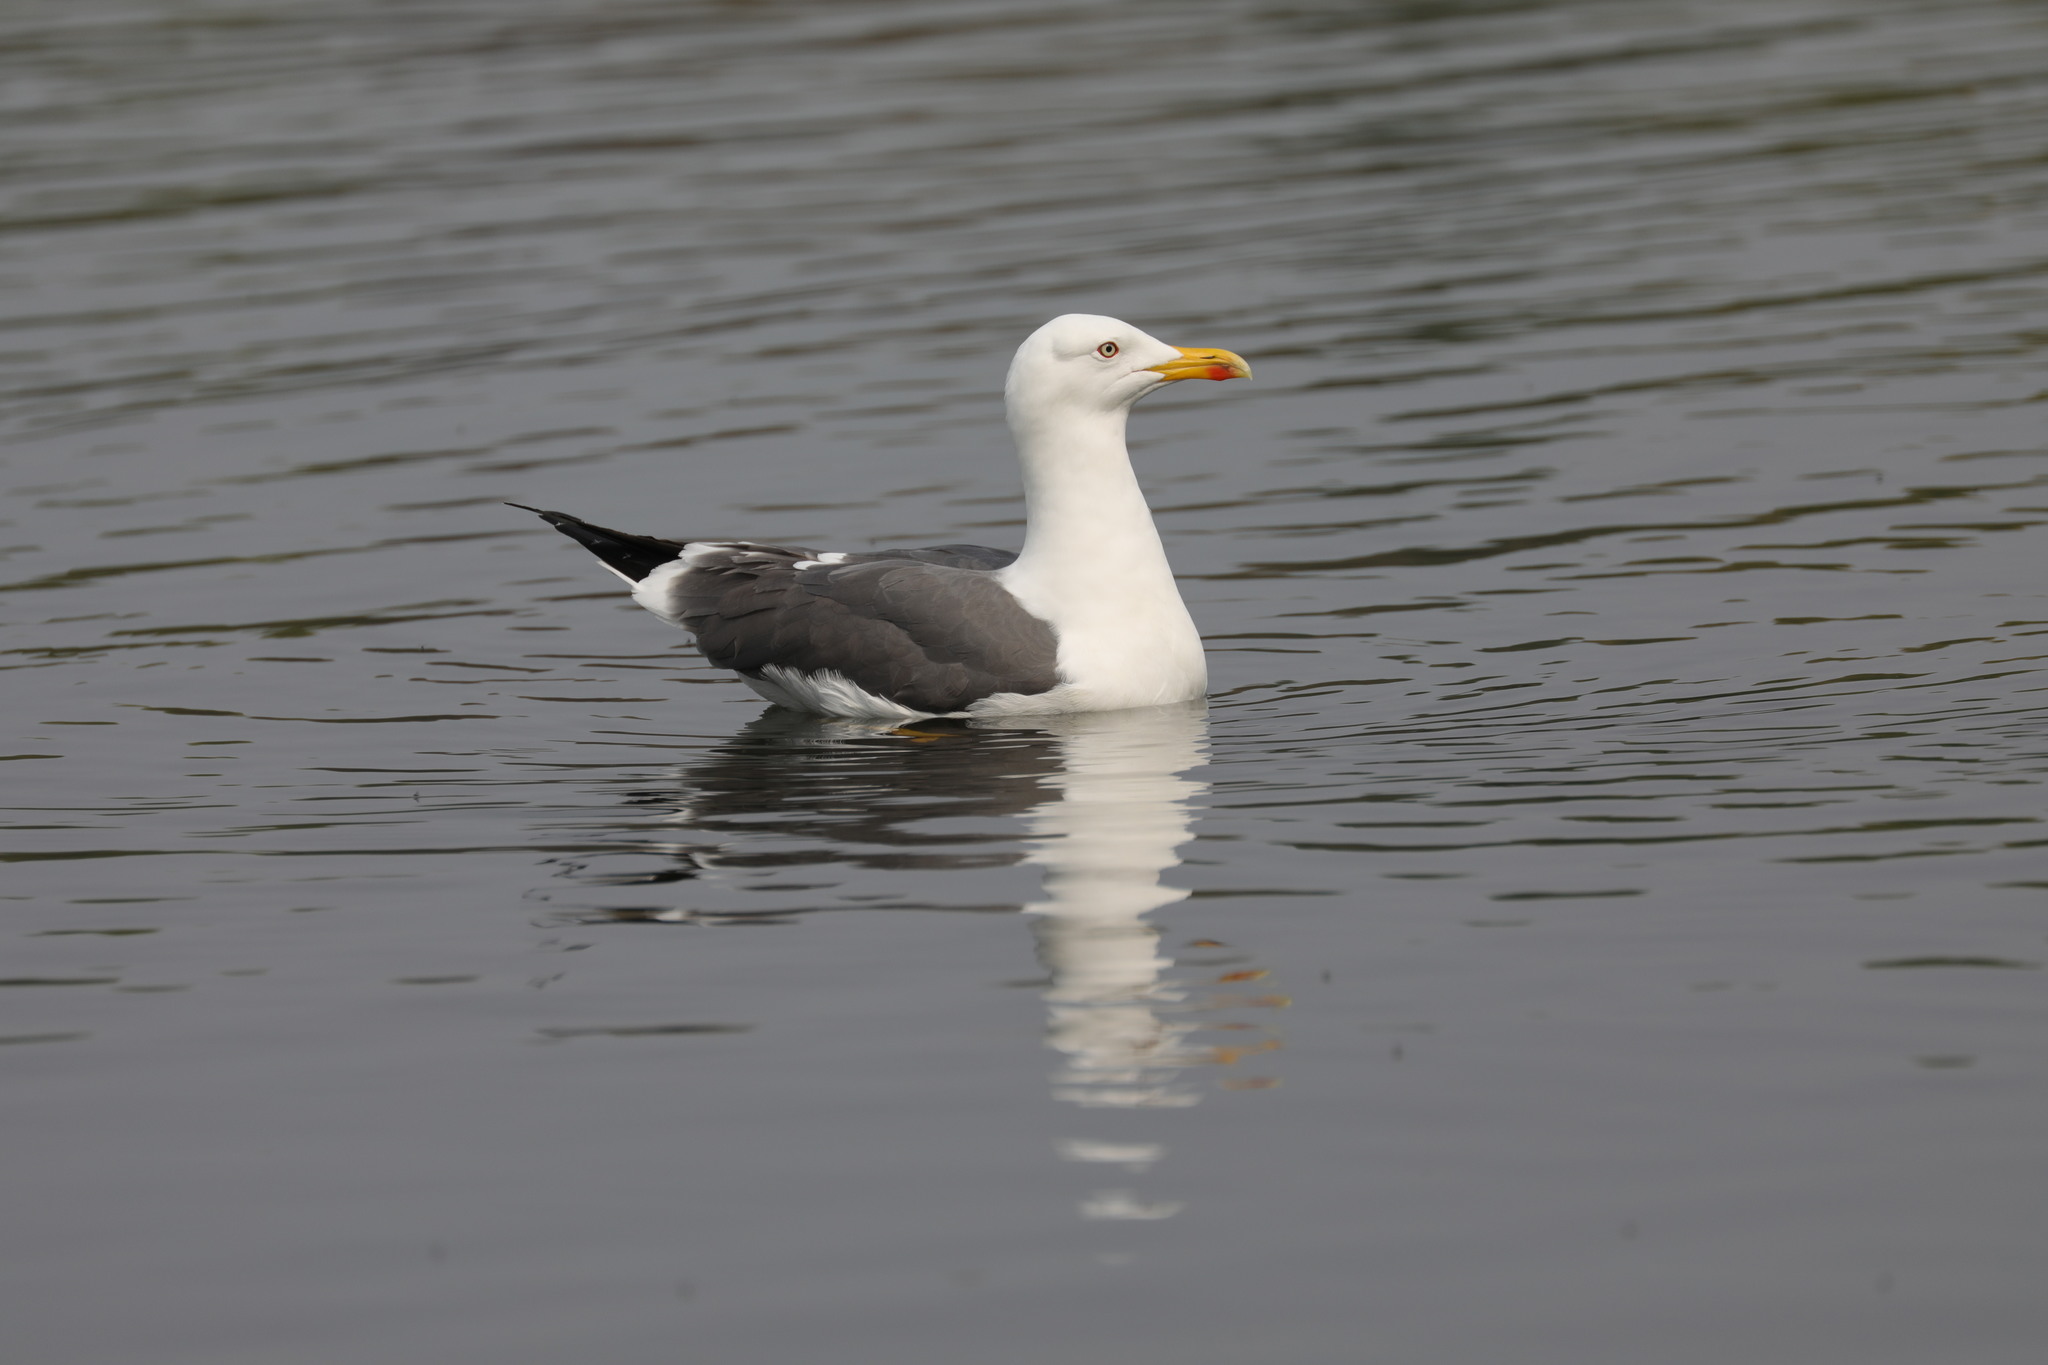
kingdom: Animalia
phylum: Chordata
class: Aves
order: Charadriiformes
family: Laridae
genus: Larus
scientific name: Larus fuscus
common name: Lesser black-backed gull
